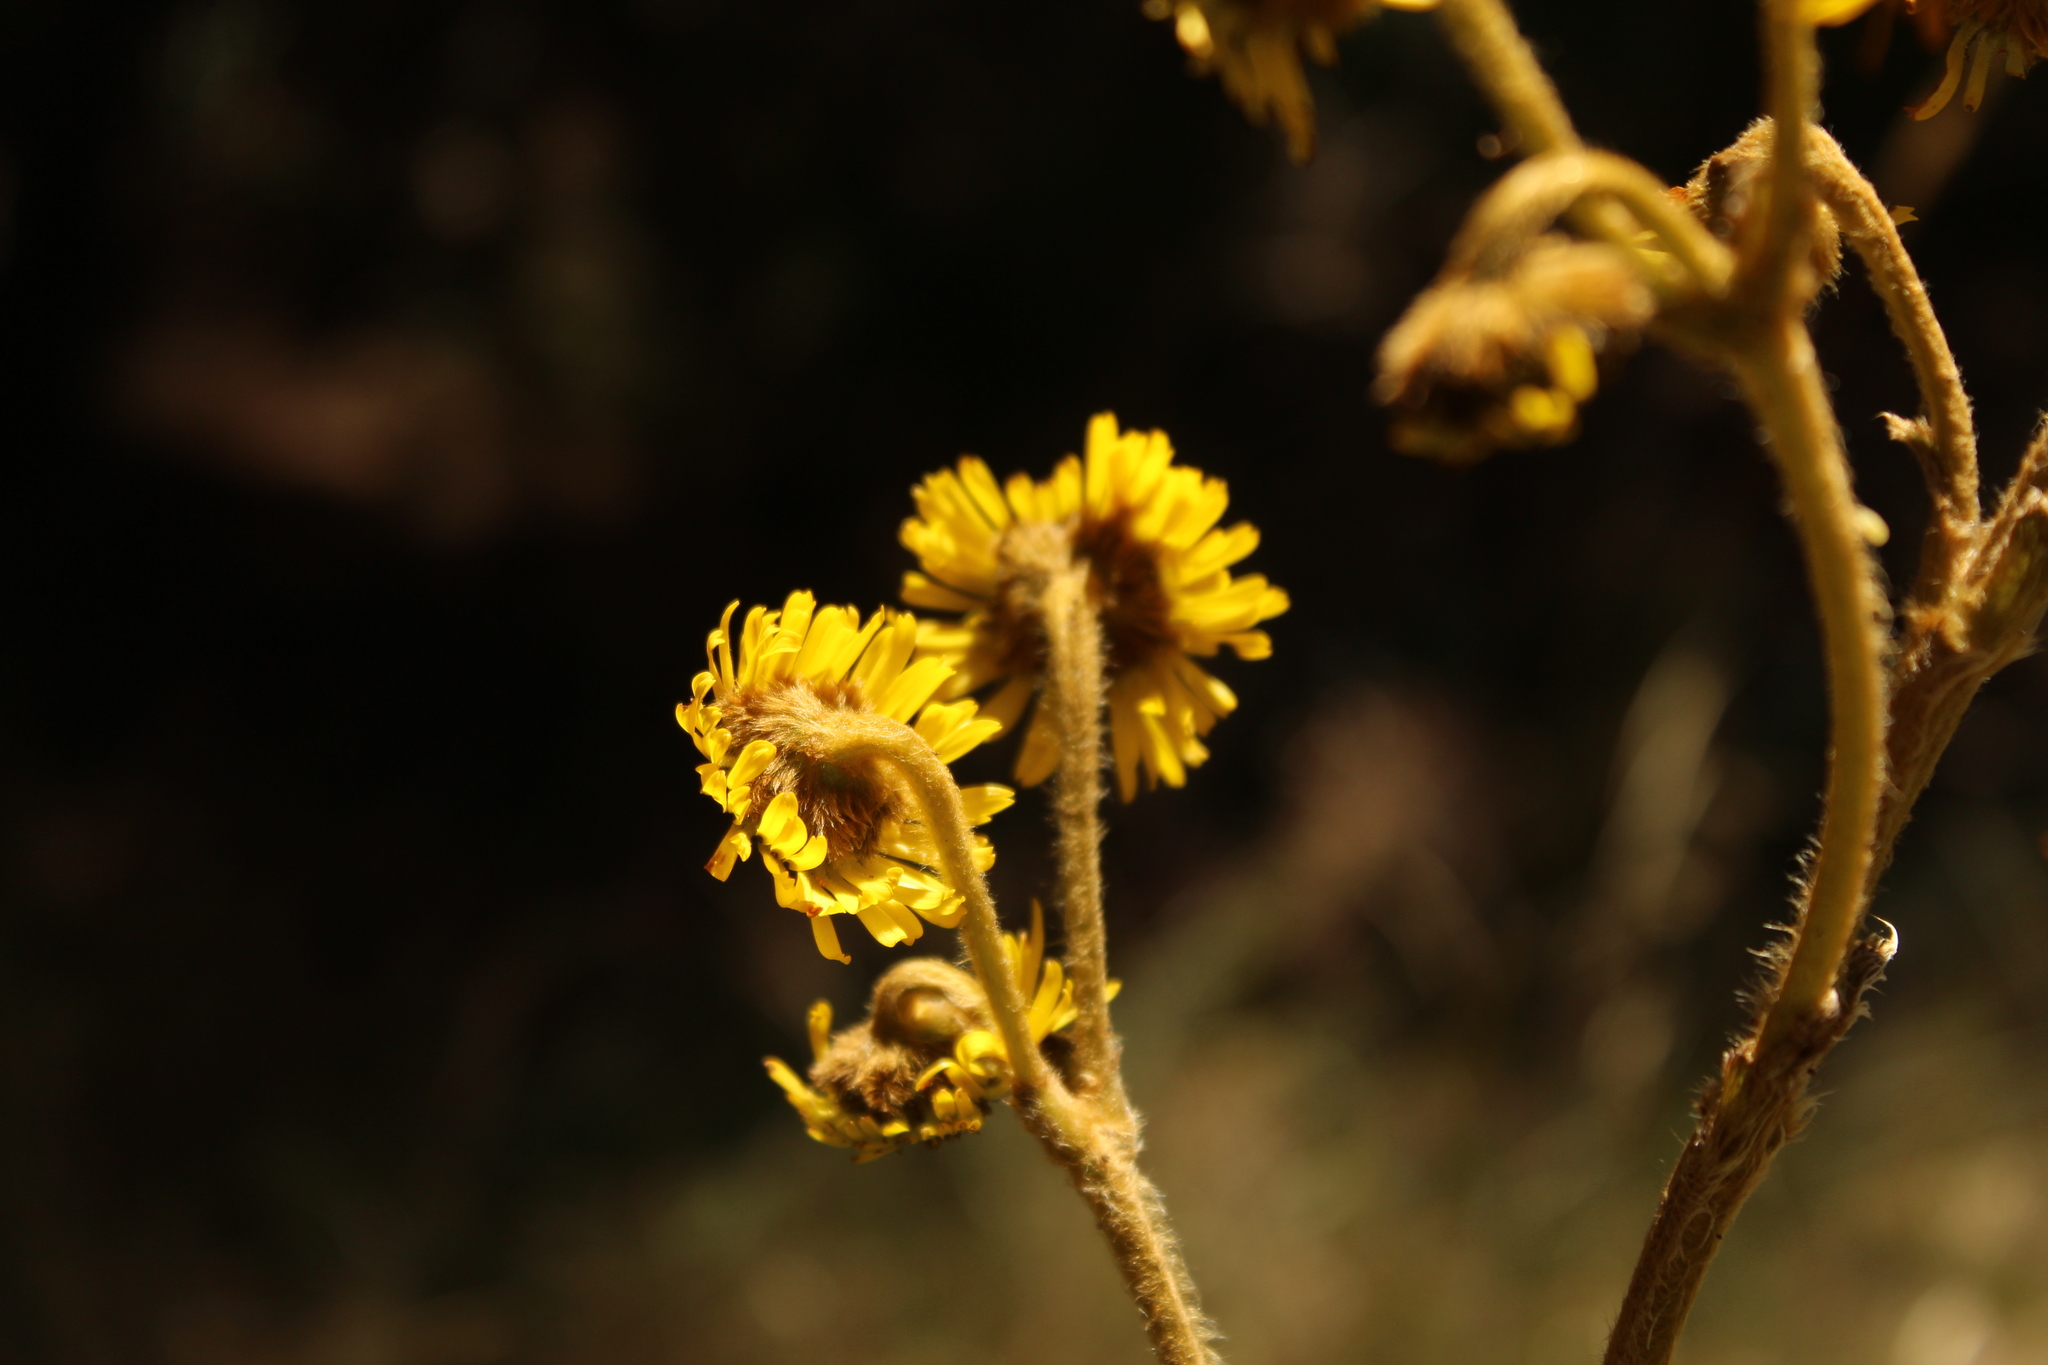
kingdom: Plantae
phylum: Tracheophyta
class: Magnoliopsida
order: Asterales
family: Asteraceae
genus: Espeletia
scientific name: Espeletia boyacensis
